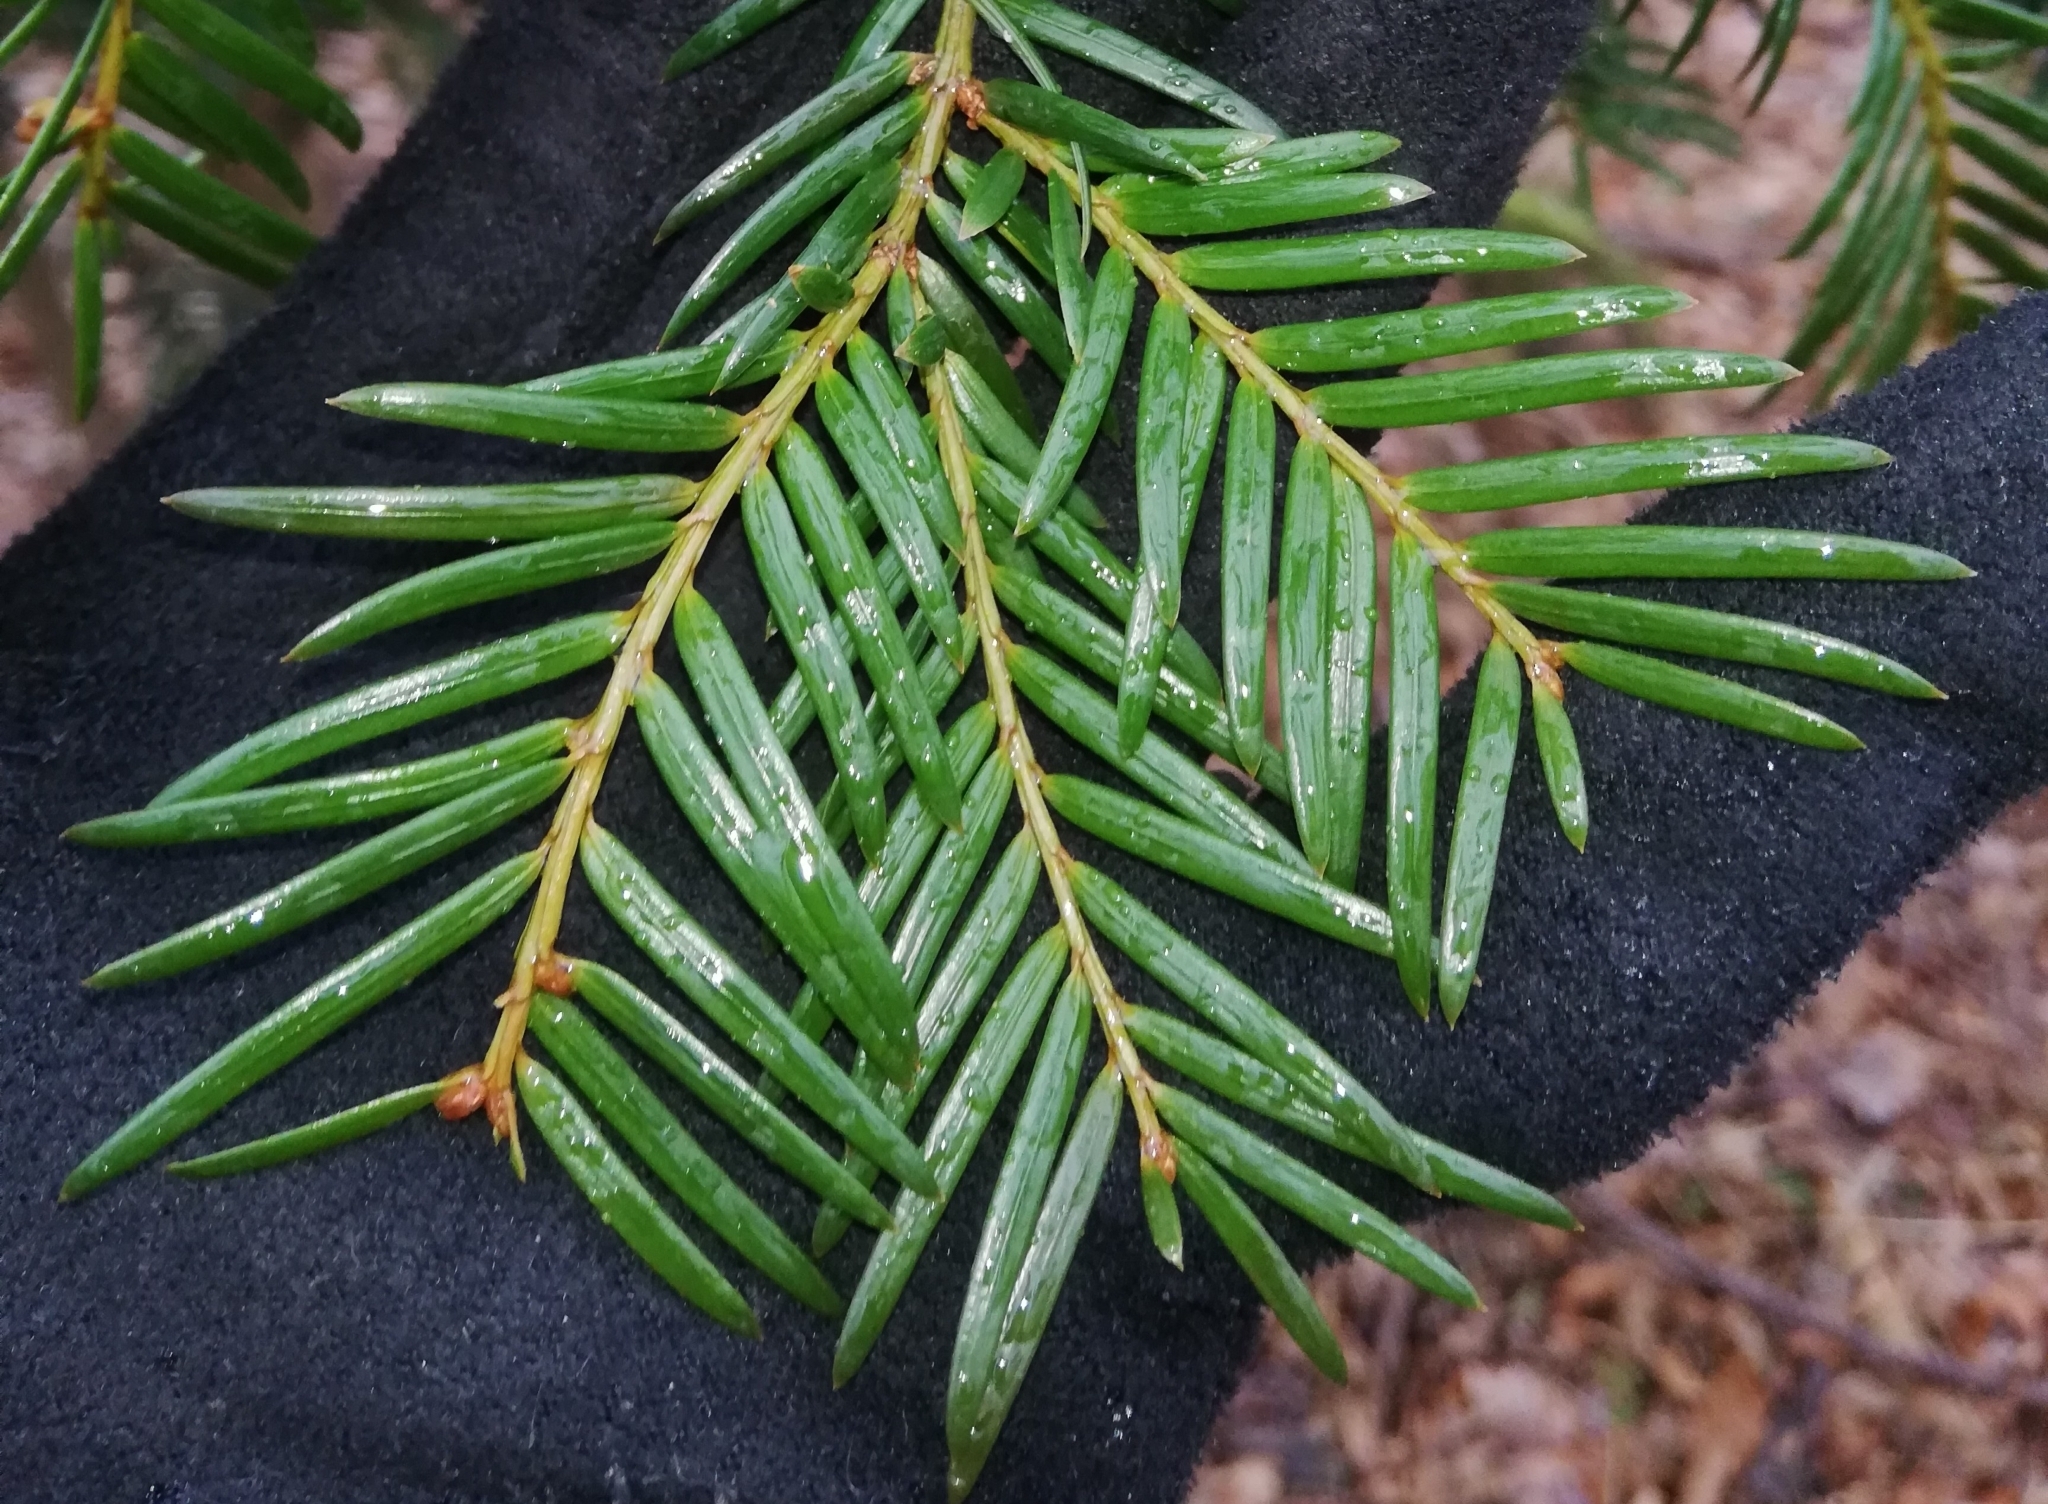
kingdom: Plantae
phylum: Tracheophyta
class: Pinopsida
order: Pinales
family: Taxaceae
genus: Taxus
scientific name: Taxus baccata
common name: Yew
